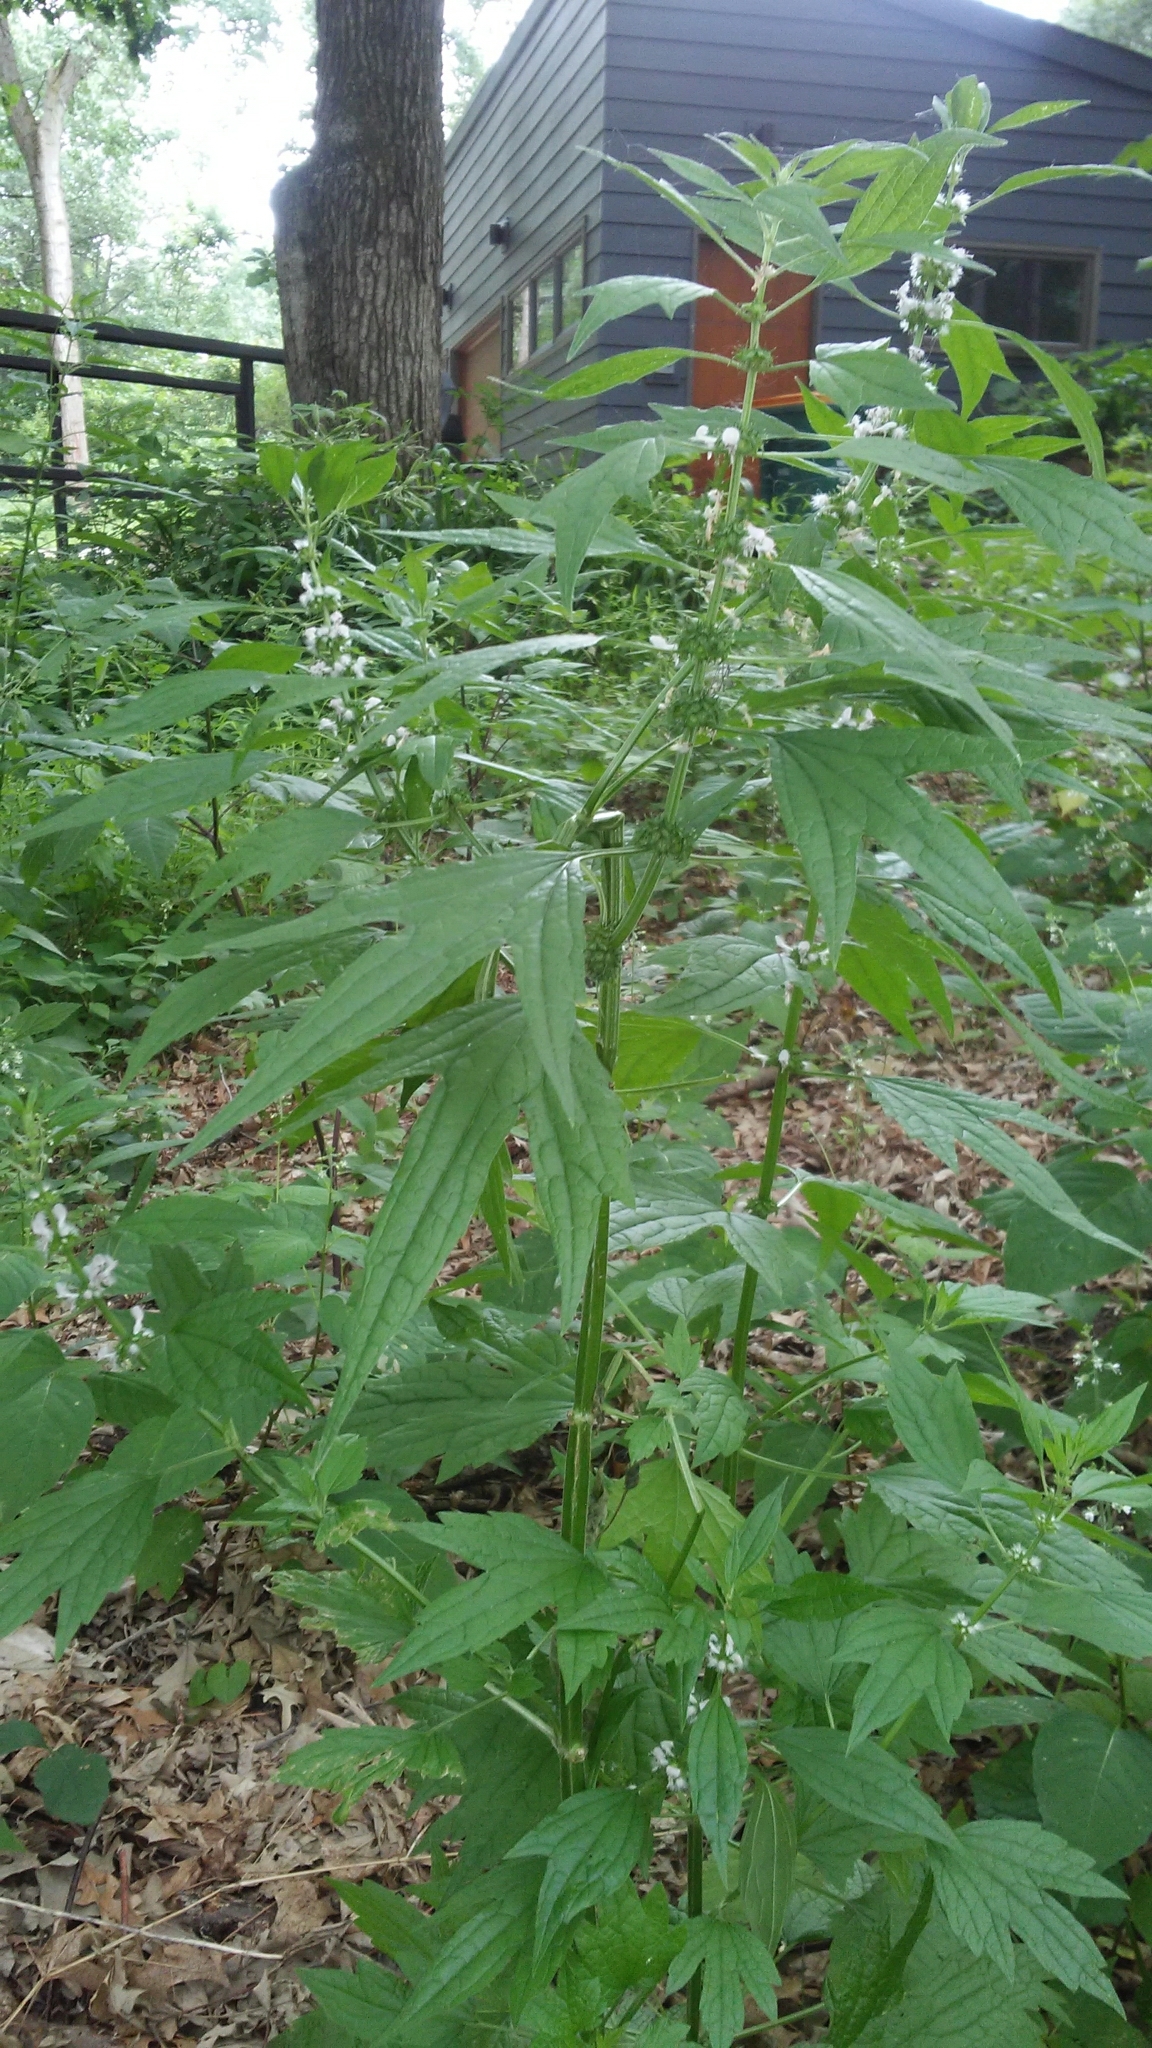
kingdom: Plantae
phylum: Tracheophyta
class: Magnoliopsida
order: Lamiales
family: Lamiaceae
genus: Leonurus
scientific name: Leonurus cardiaca
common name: Motherwort
